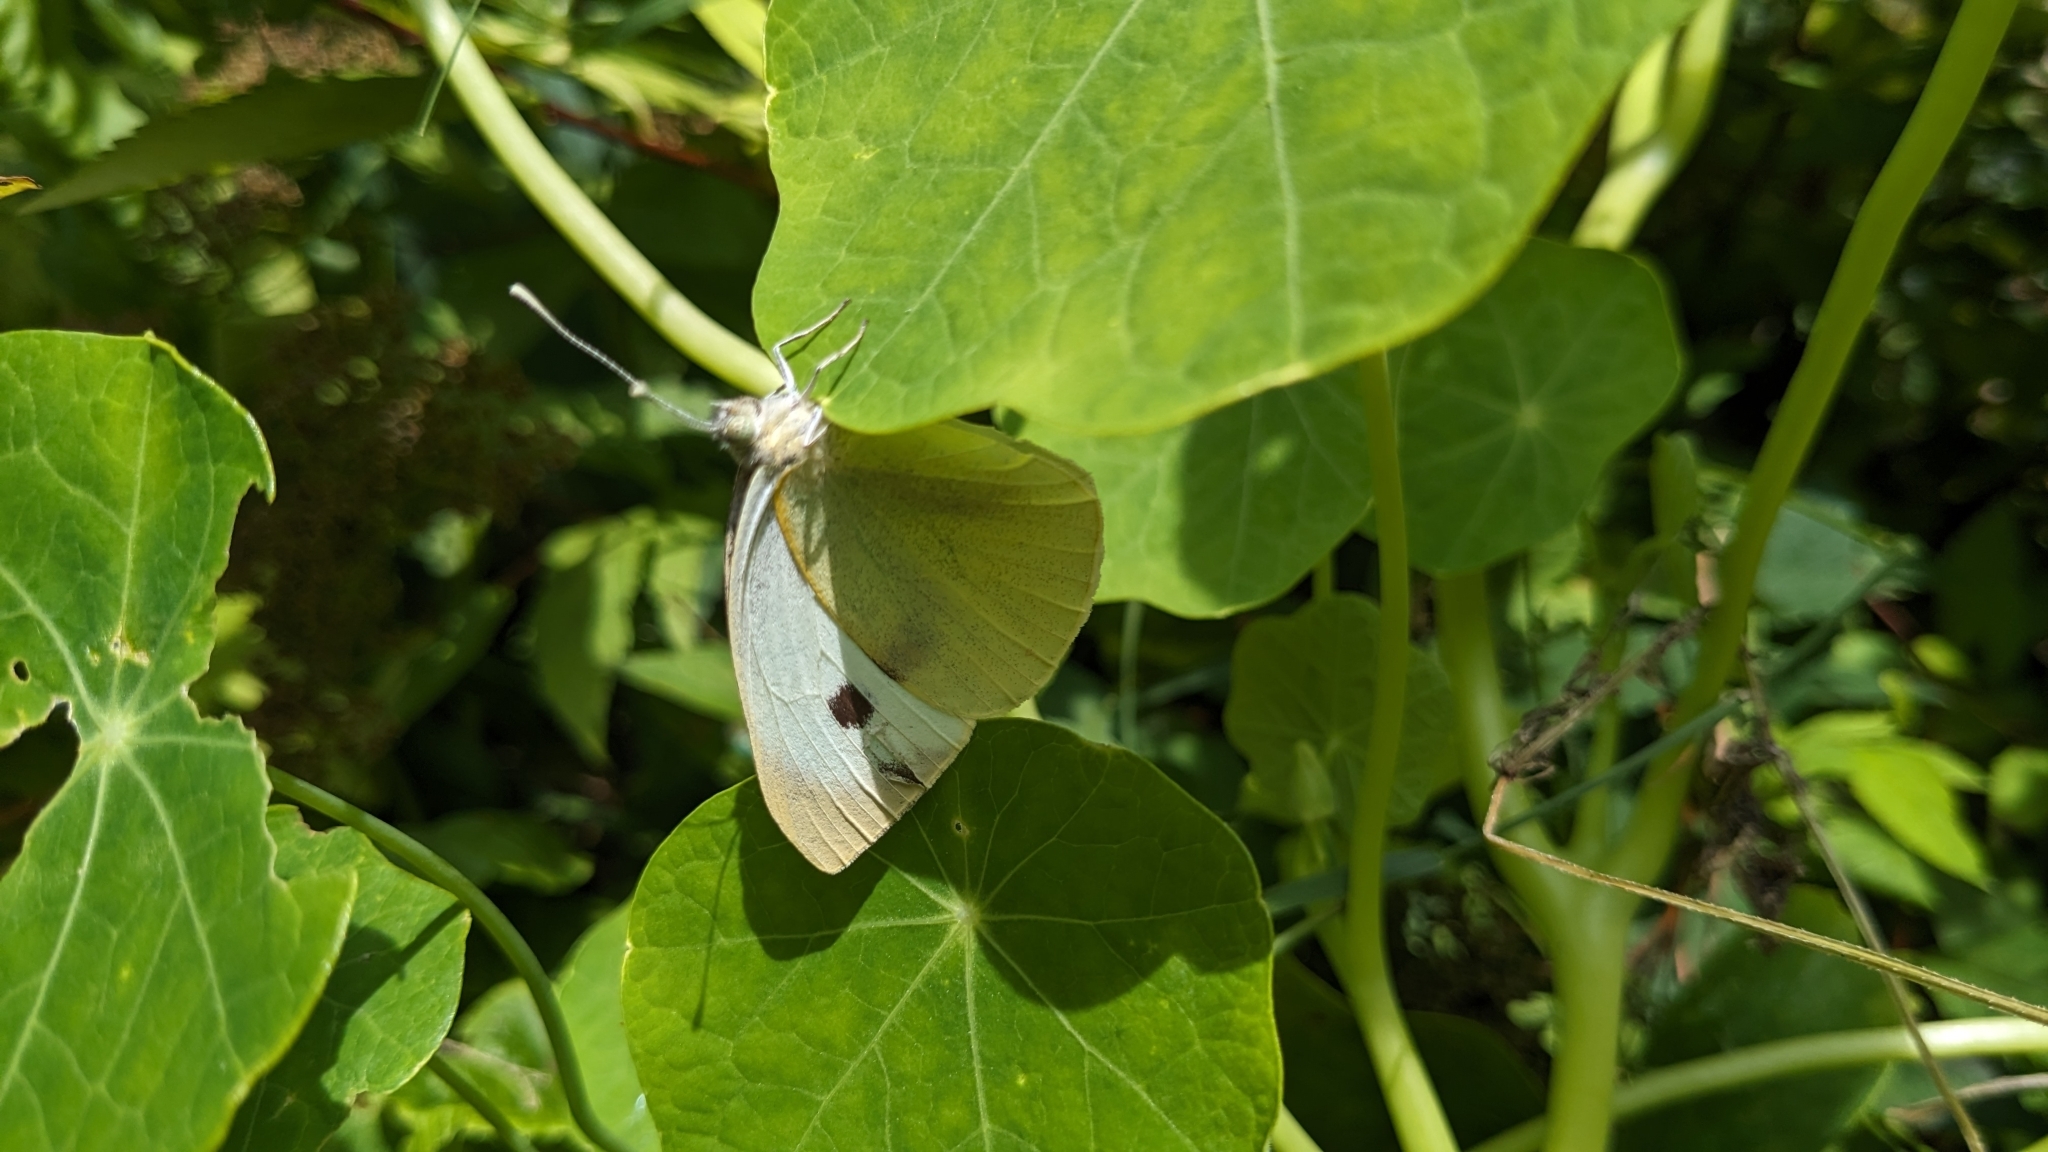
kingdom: Animalia
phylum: Arthropoda
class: Insecta
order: Lepidoptera
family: Pieridae
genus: Pieris
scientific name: Pieris brassicae
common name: Large white
